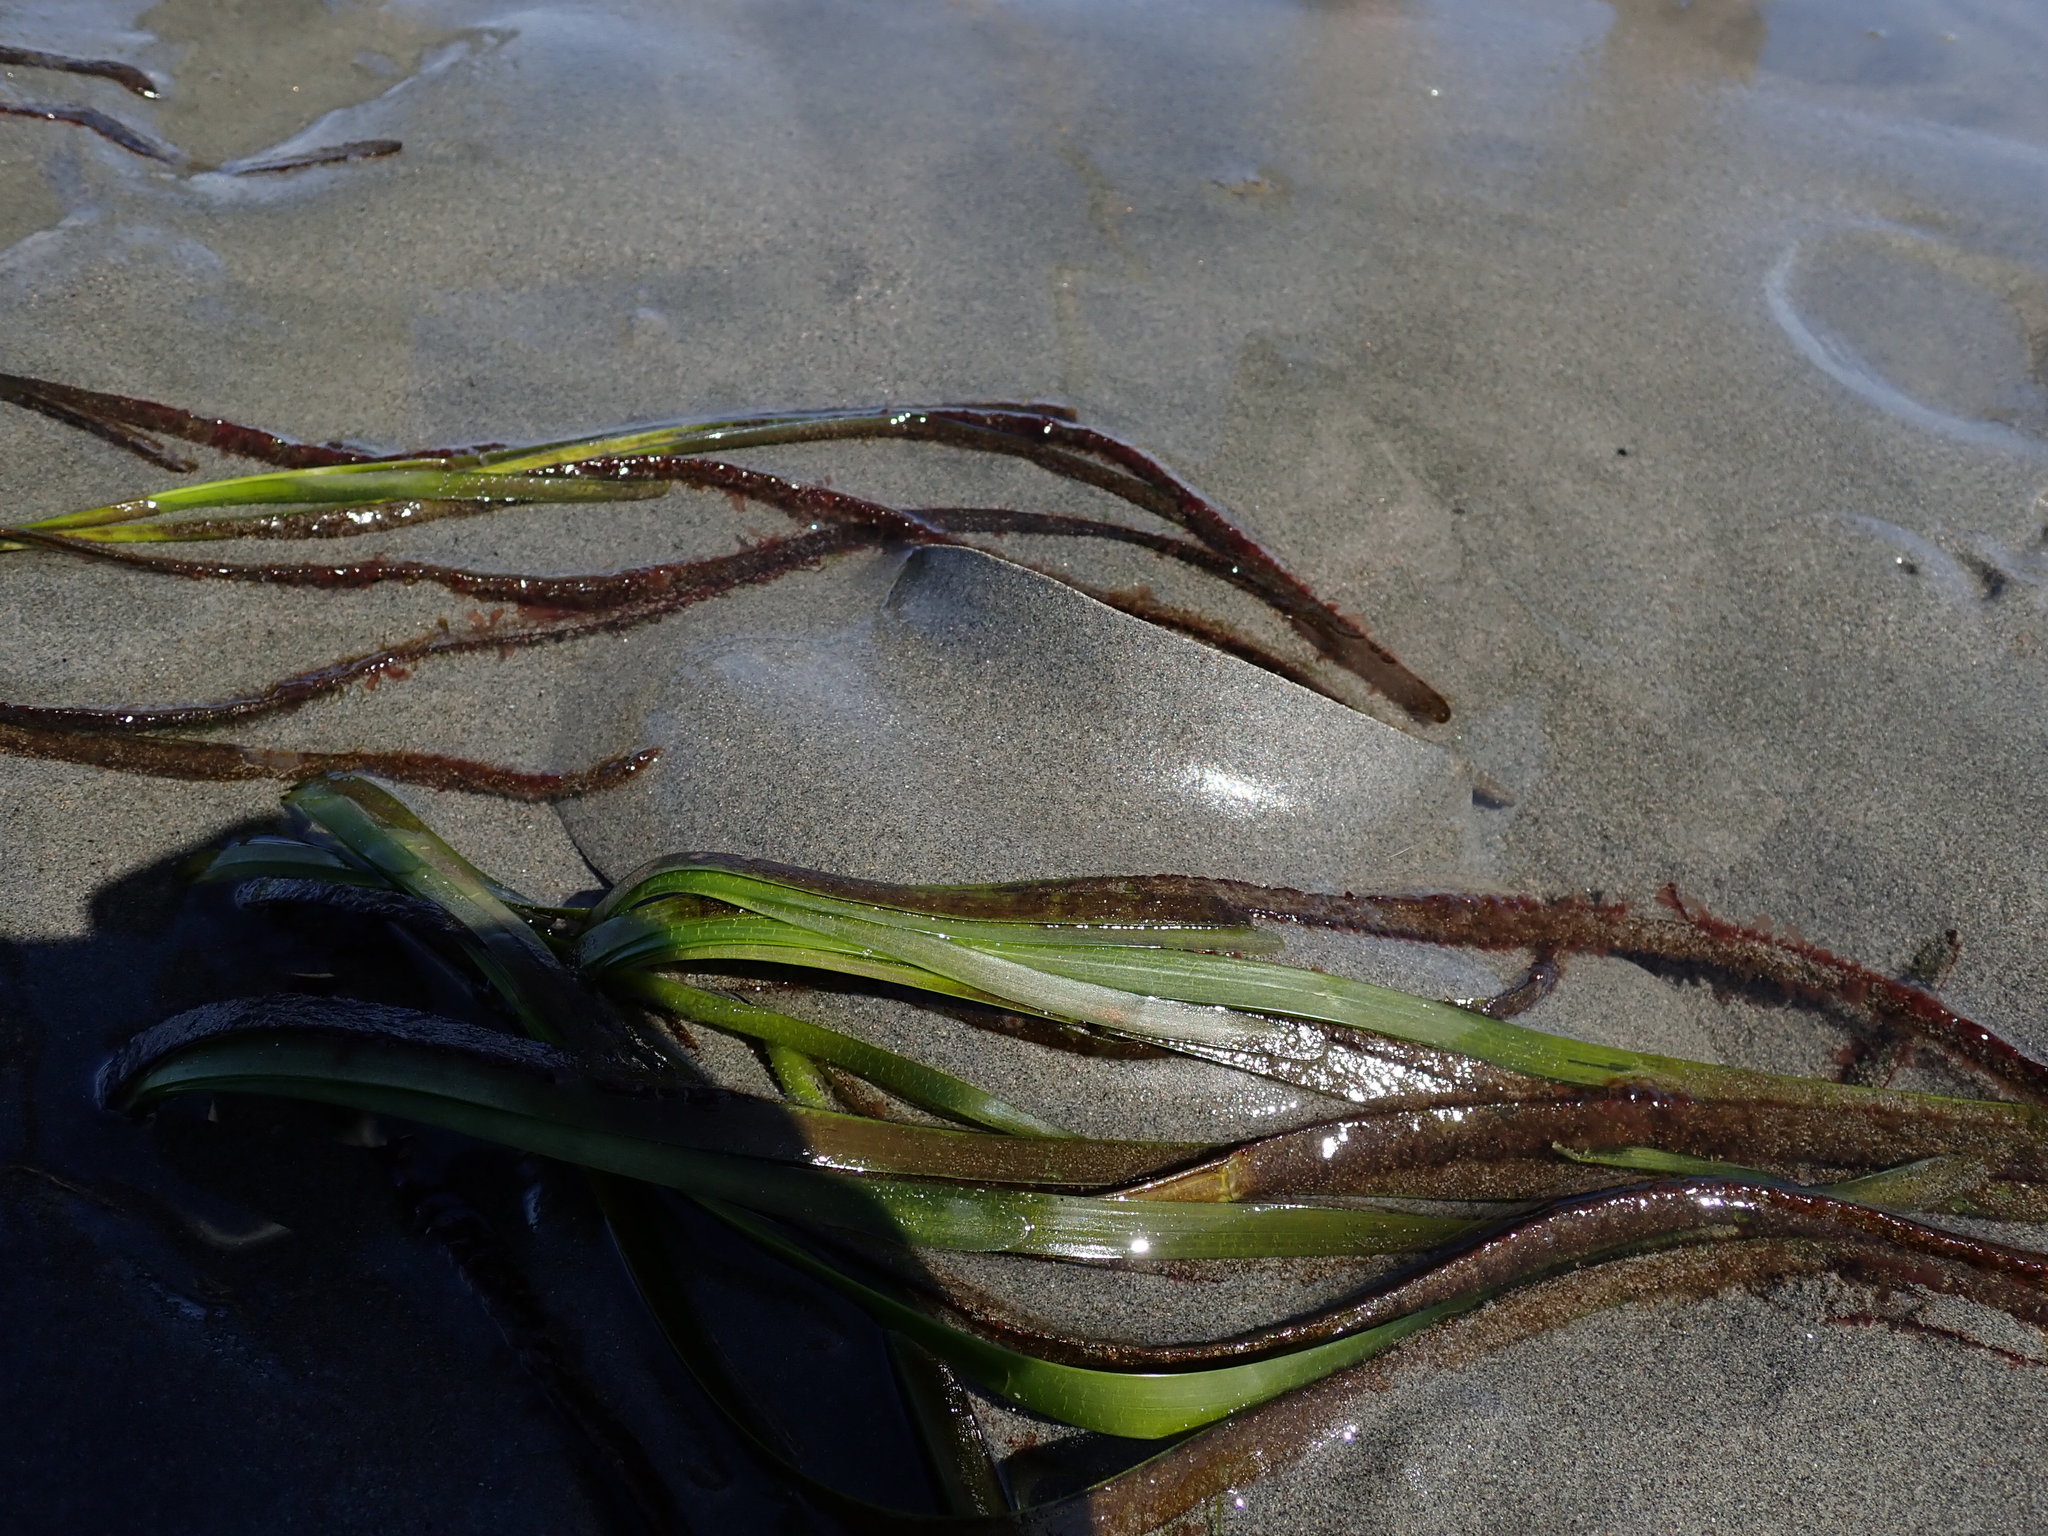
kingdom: Plantae
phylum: Rhodophyta
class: Compsopogonophyceae
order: Erythropeltidales
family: Erythrotrichiaceae
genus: Smithora
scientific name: Smithora naiadum
